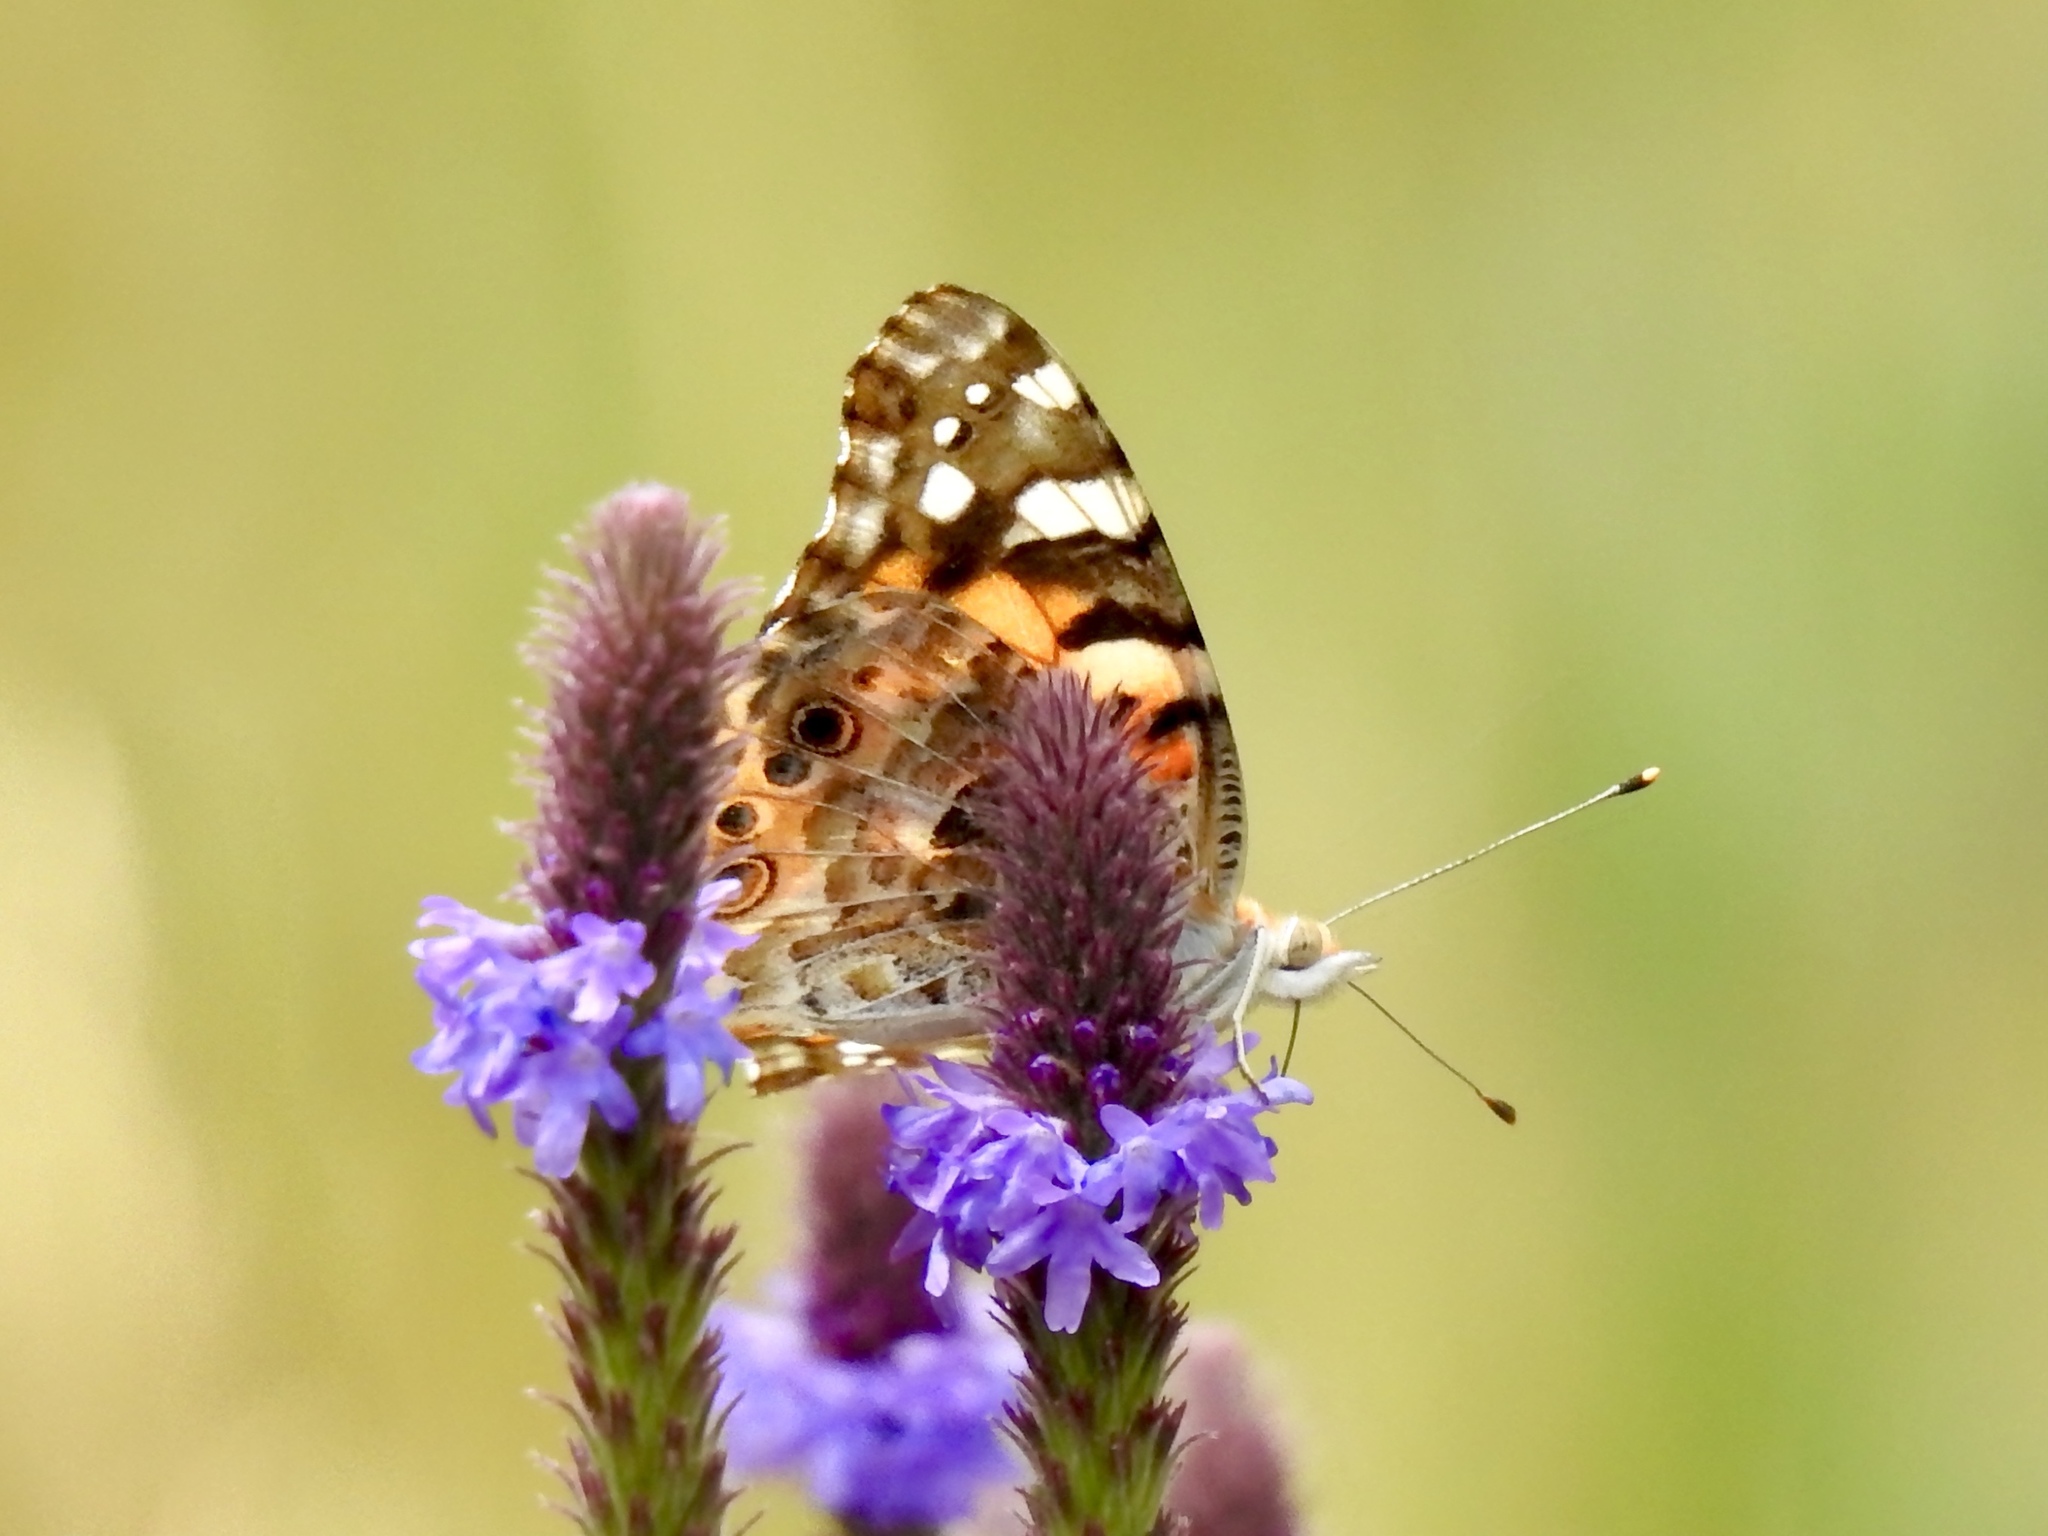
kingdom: Animalia
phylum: Arthropoda
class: Insecta
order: Lepidoptera
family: Nymphalidae
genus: Vanessa
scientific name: Vanessa cardui
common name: Painted lady
